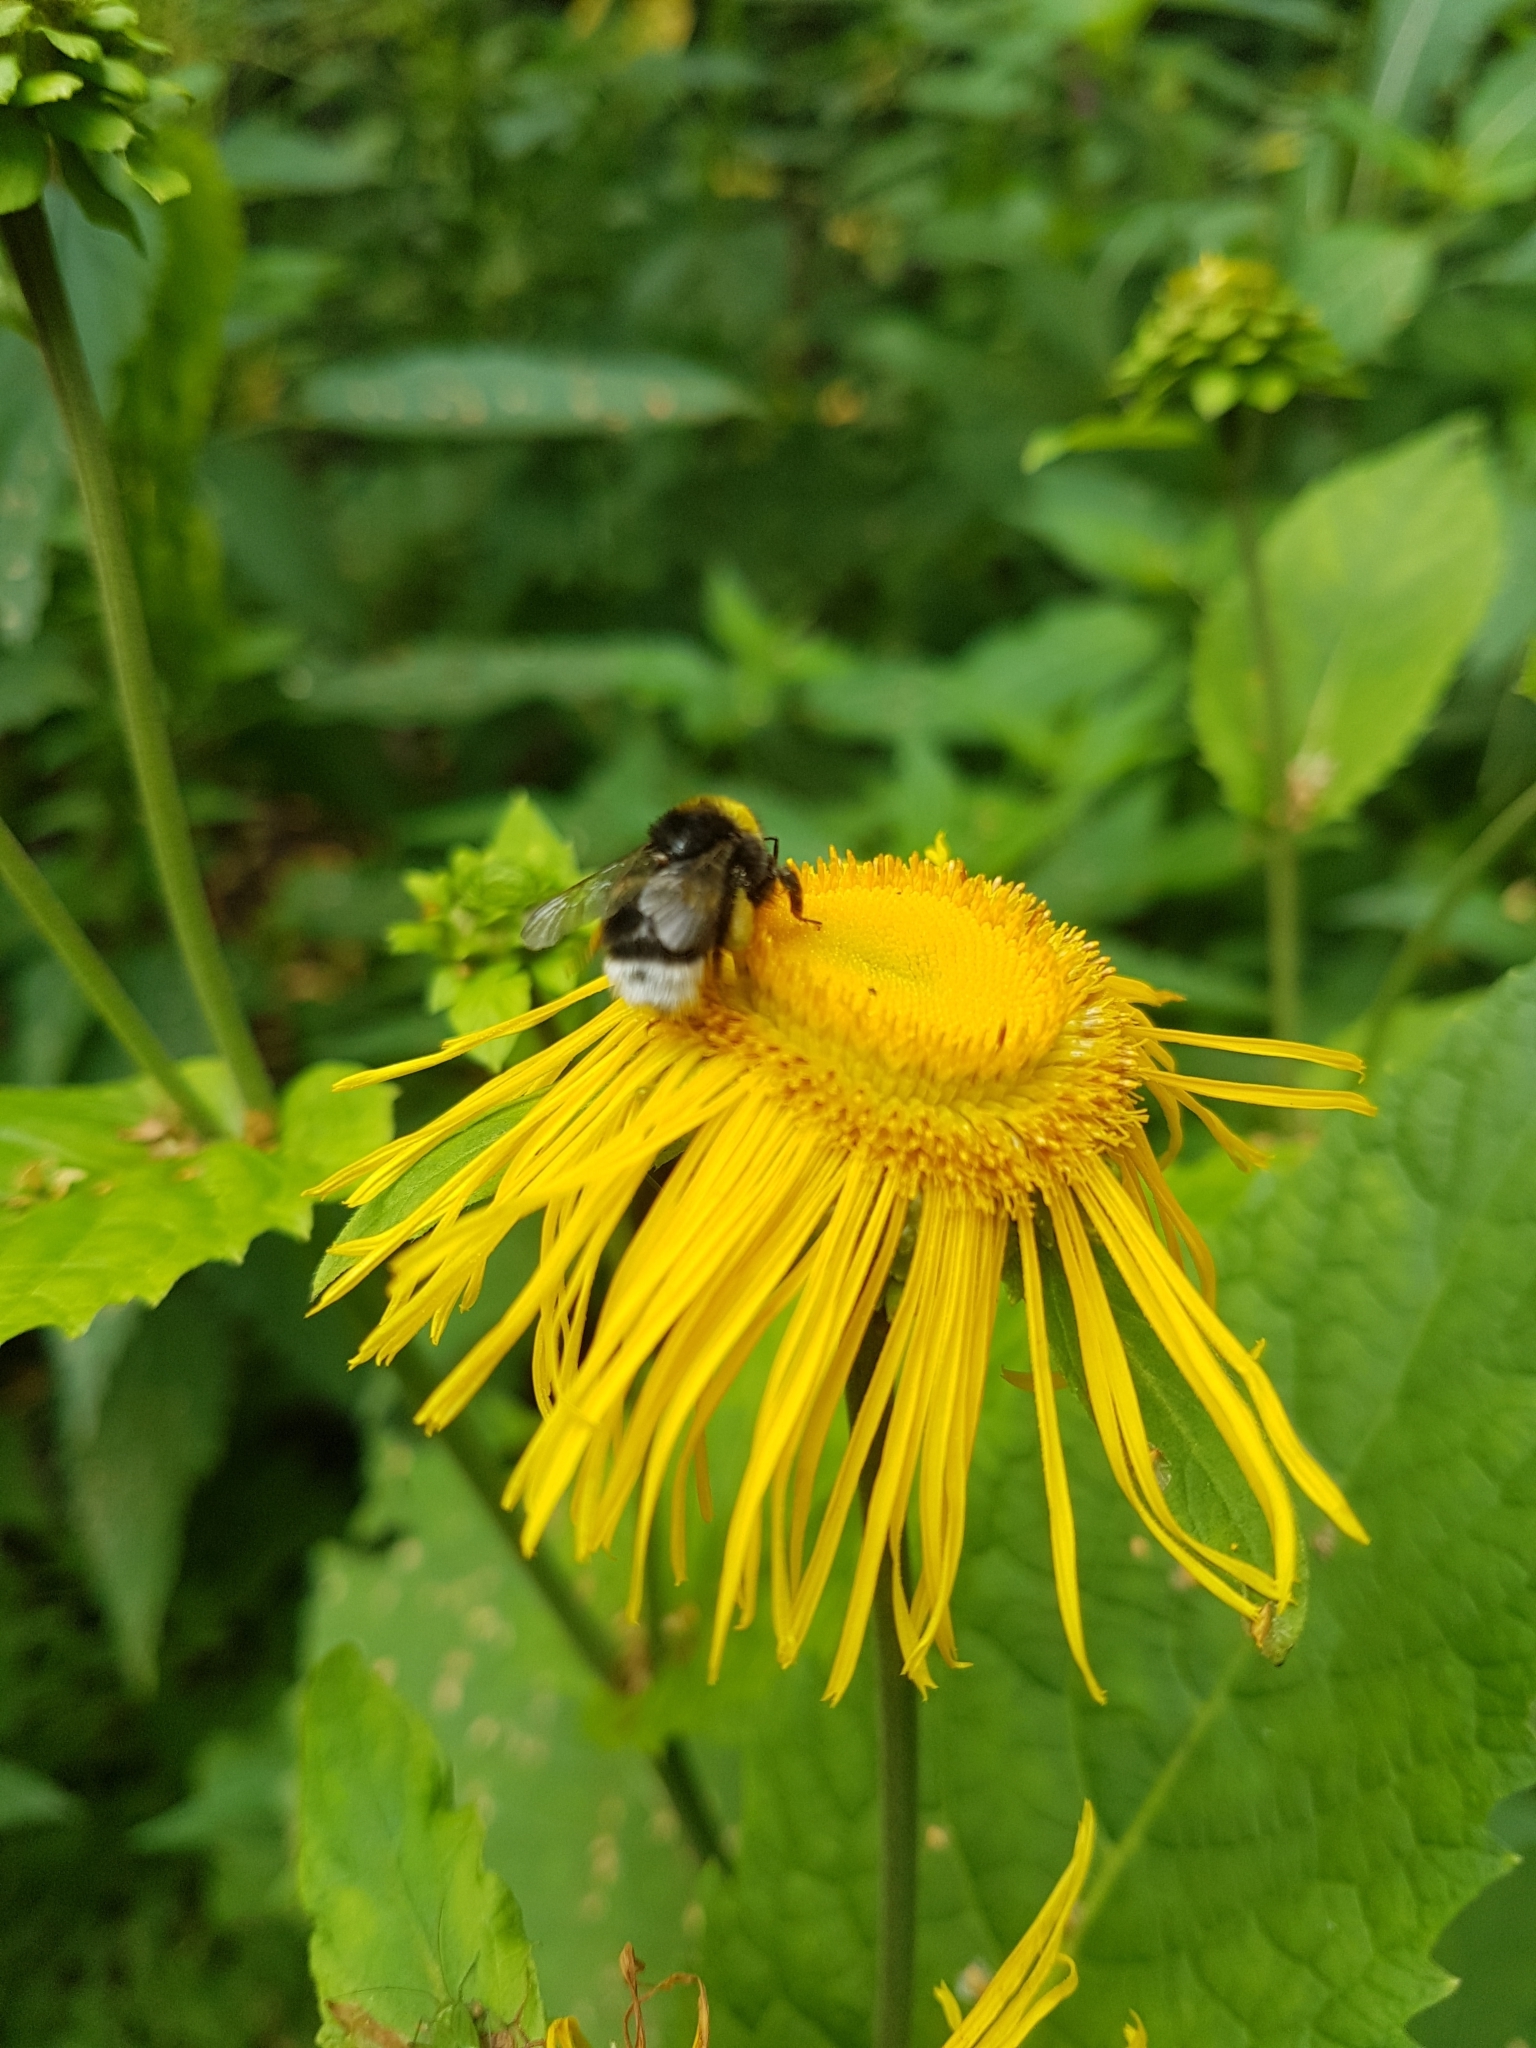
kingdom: Plantae
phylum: Tracheophyta
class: Magnoliopsida
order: Asterales
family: Asteraceae
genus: Telekia
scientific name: Telekia speciosa
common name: Yellow oxeye
